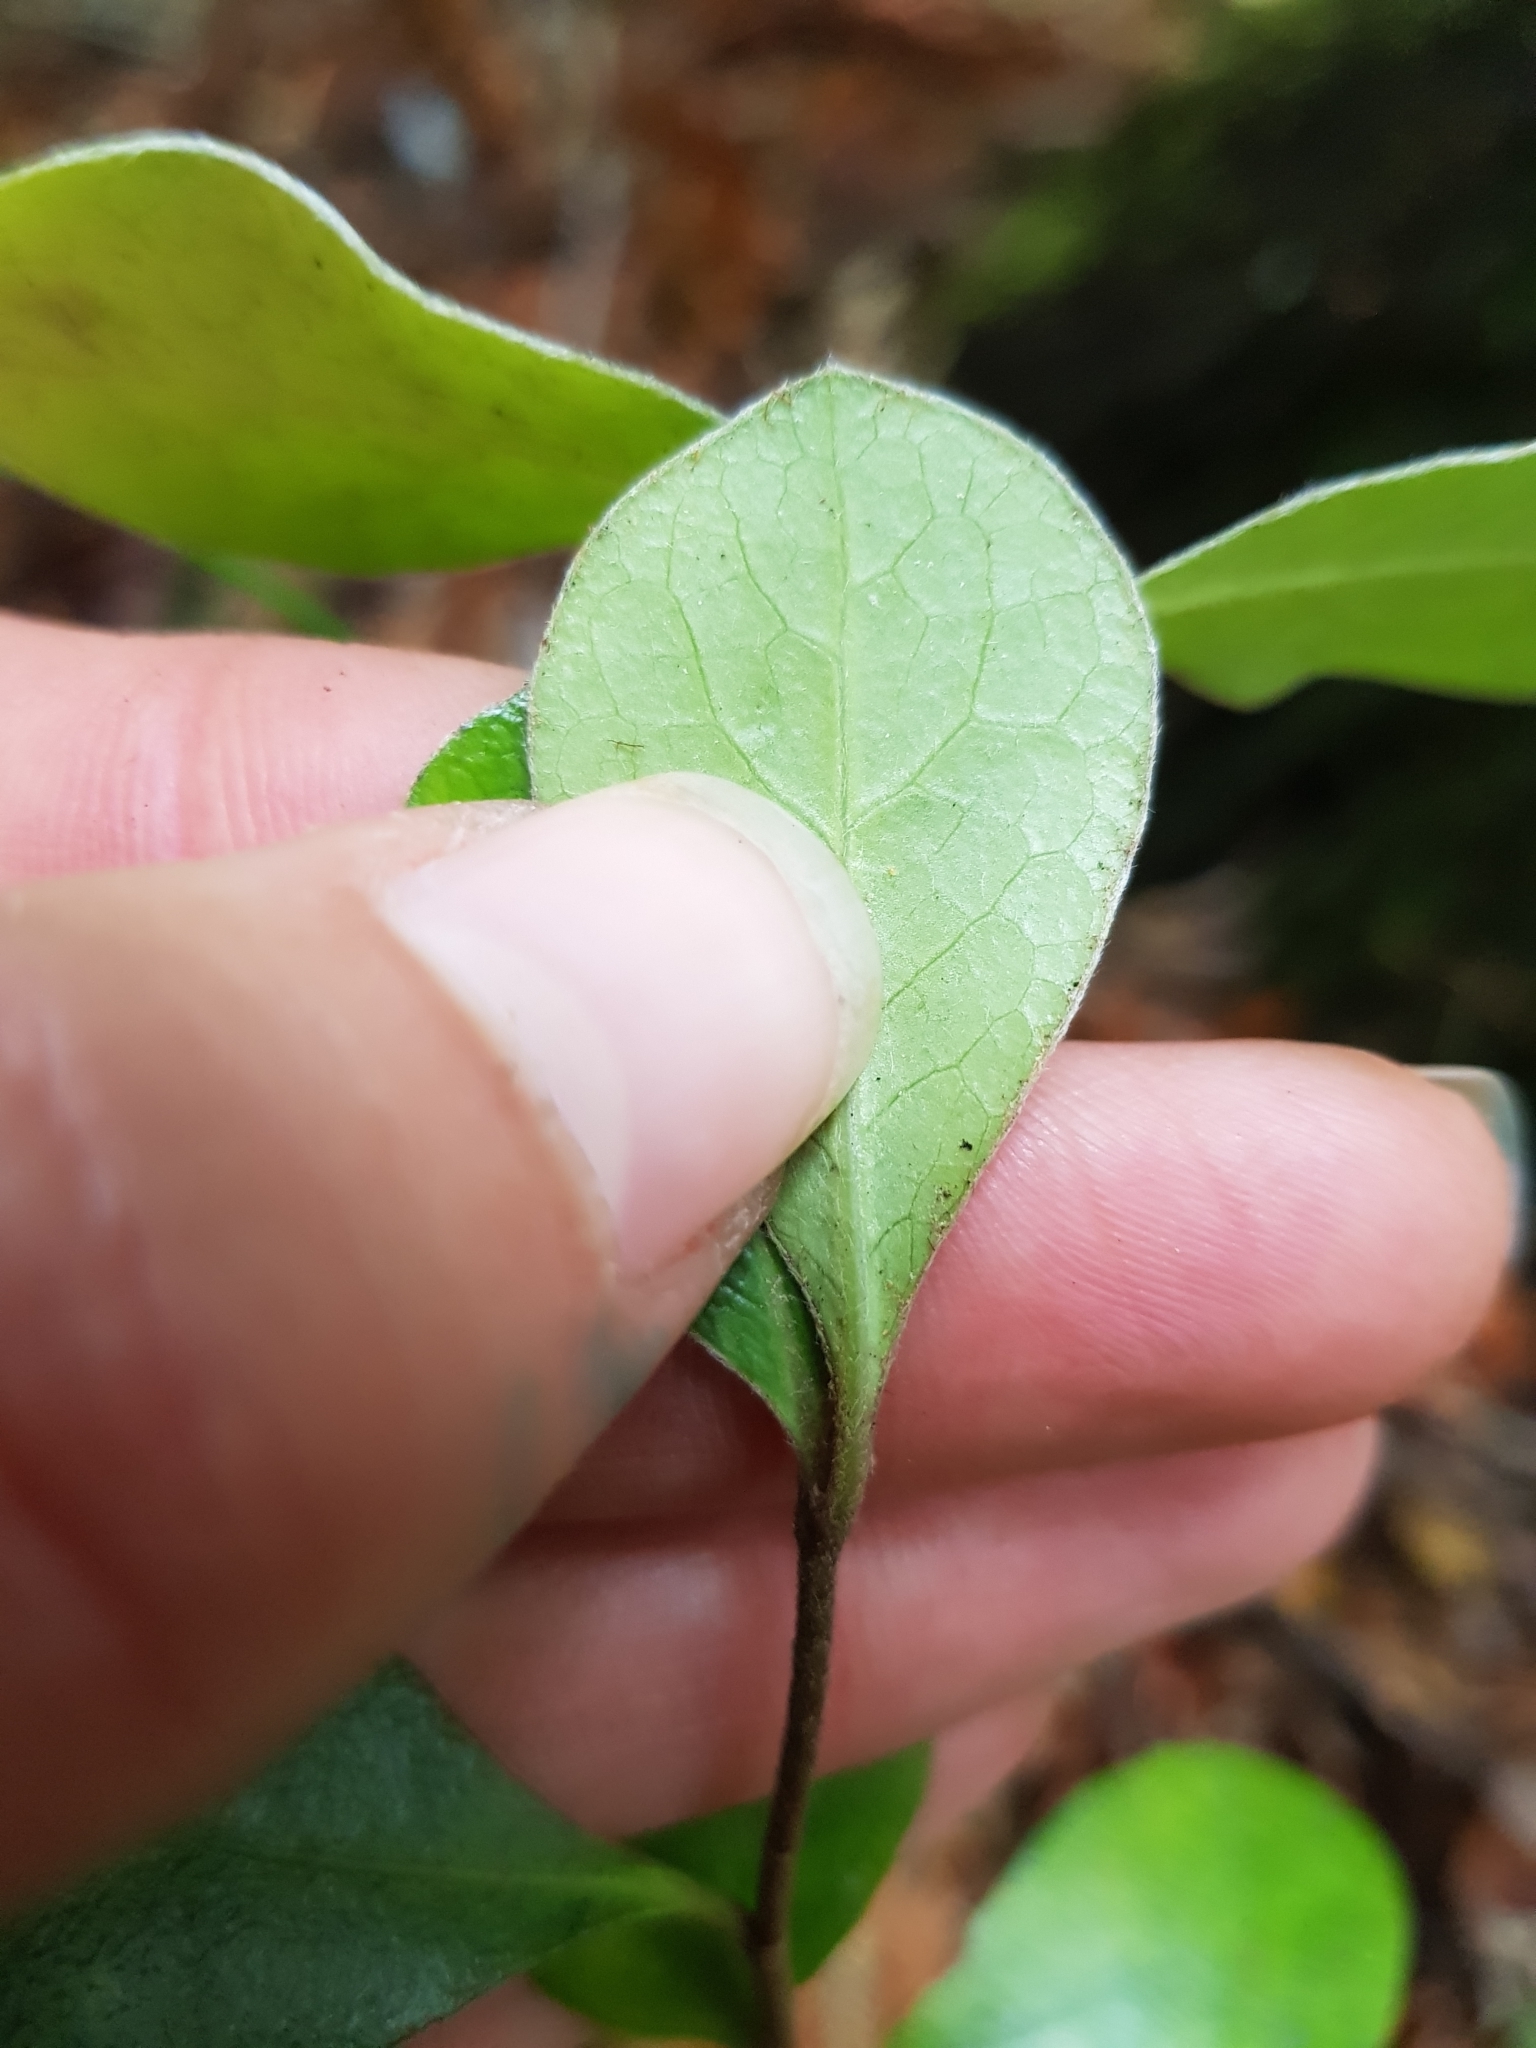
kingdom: Plantae
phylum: Tracheophyta
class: Magnoliopsida
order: Apiales
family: Pittosporaceae
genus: Pittosporum
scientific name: Pittosporum crassifolium
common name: Karo
